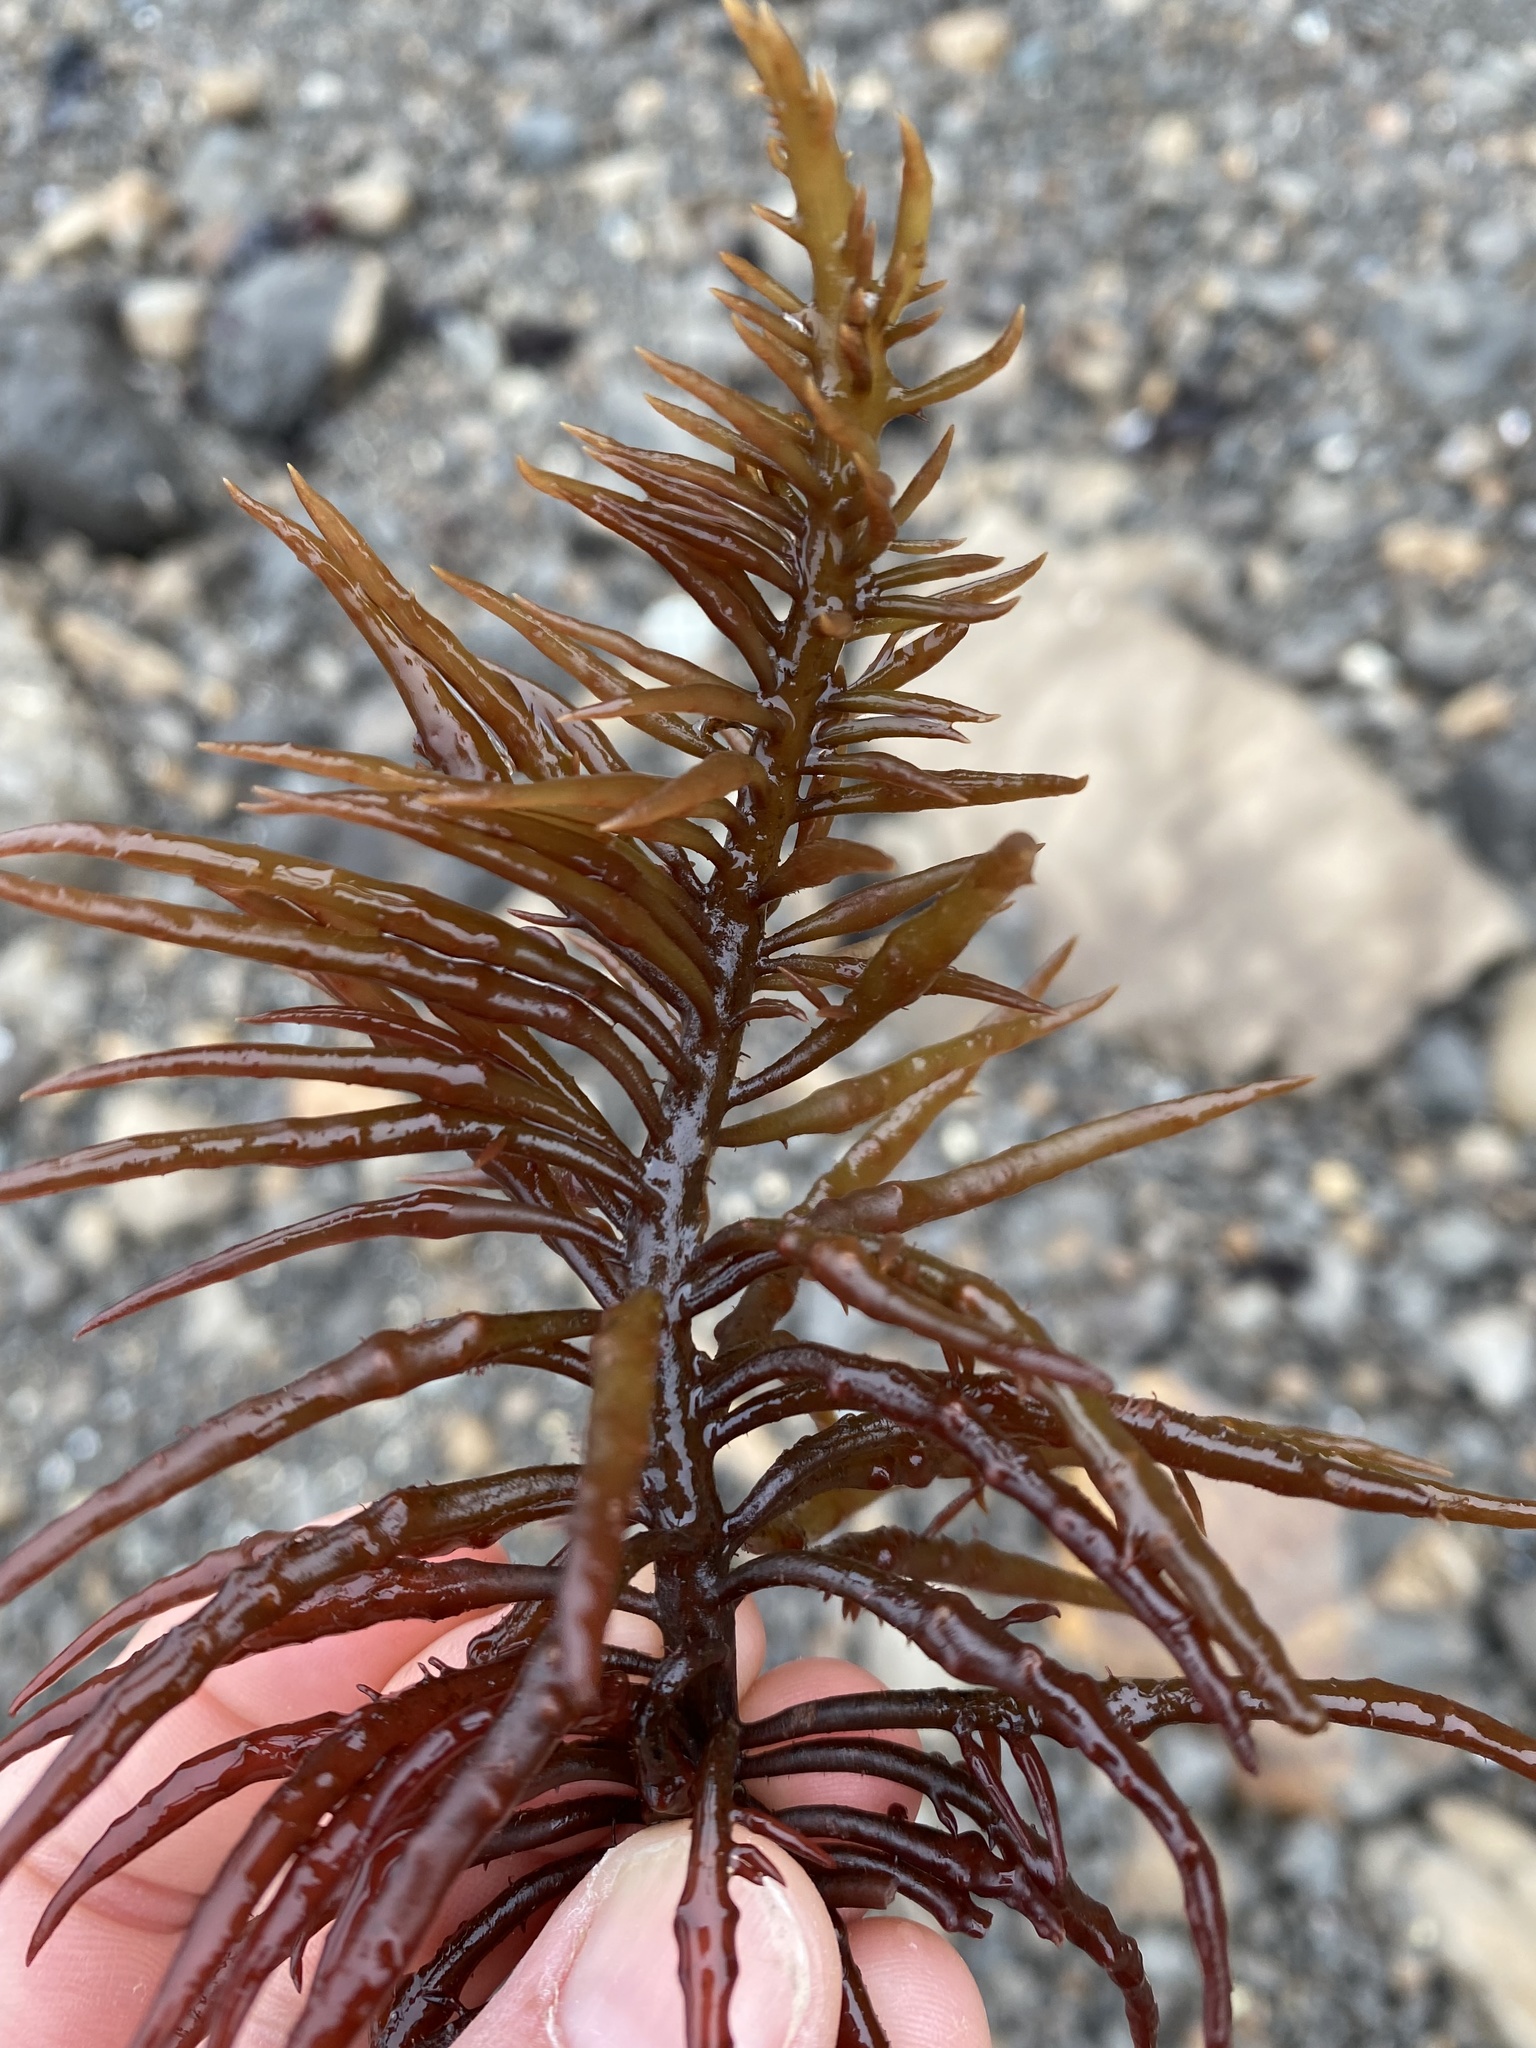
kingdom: Plantae
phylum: Rhodophyta
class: Florideophyceae
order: Gigartinales
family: Solieriaceae
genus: Sarcodiotheca
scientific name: Sarcodiotheca gaudichaudii
